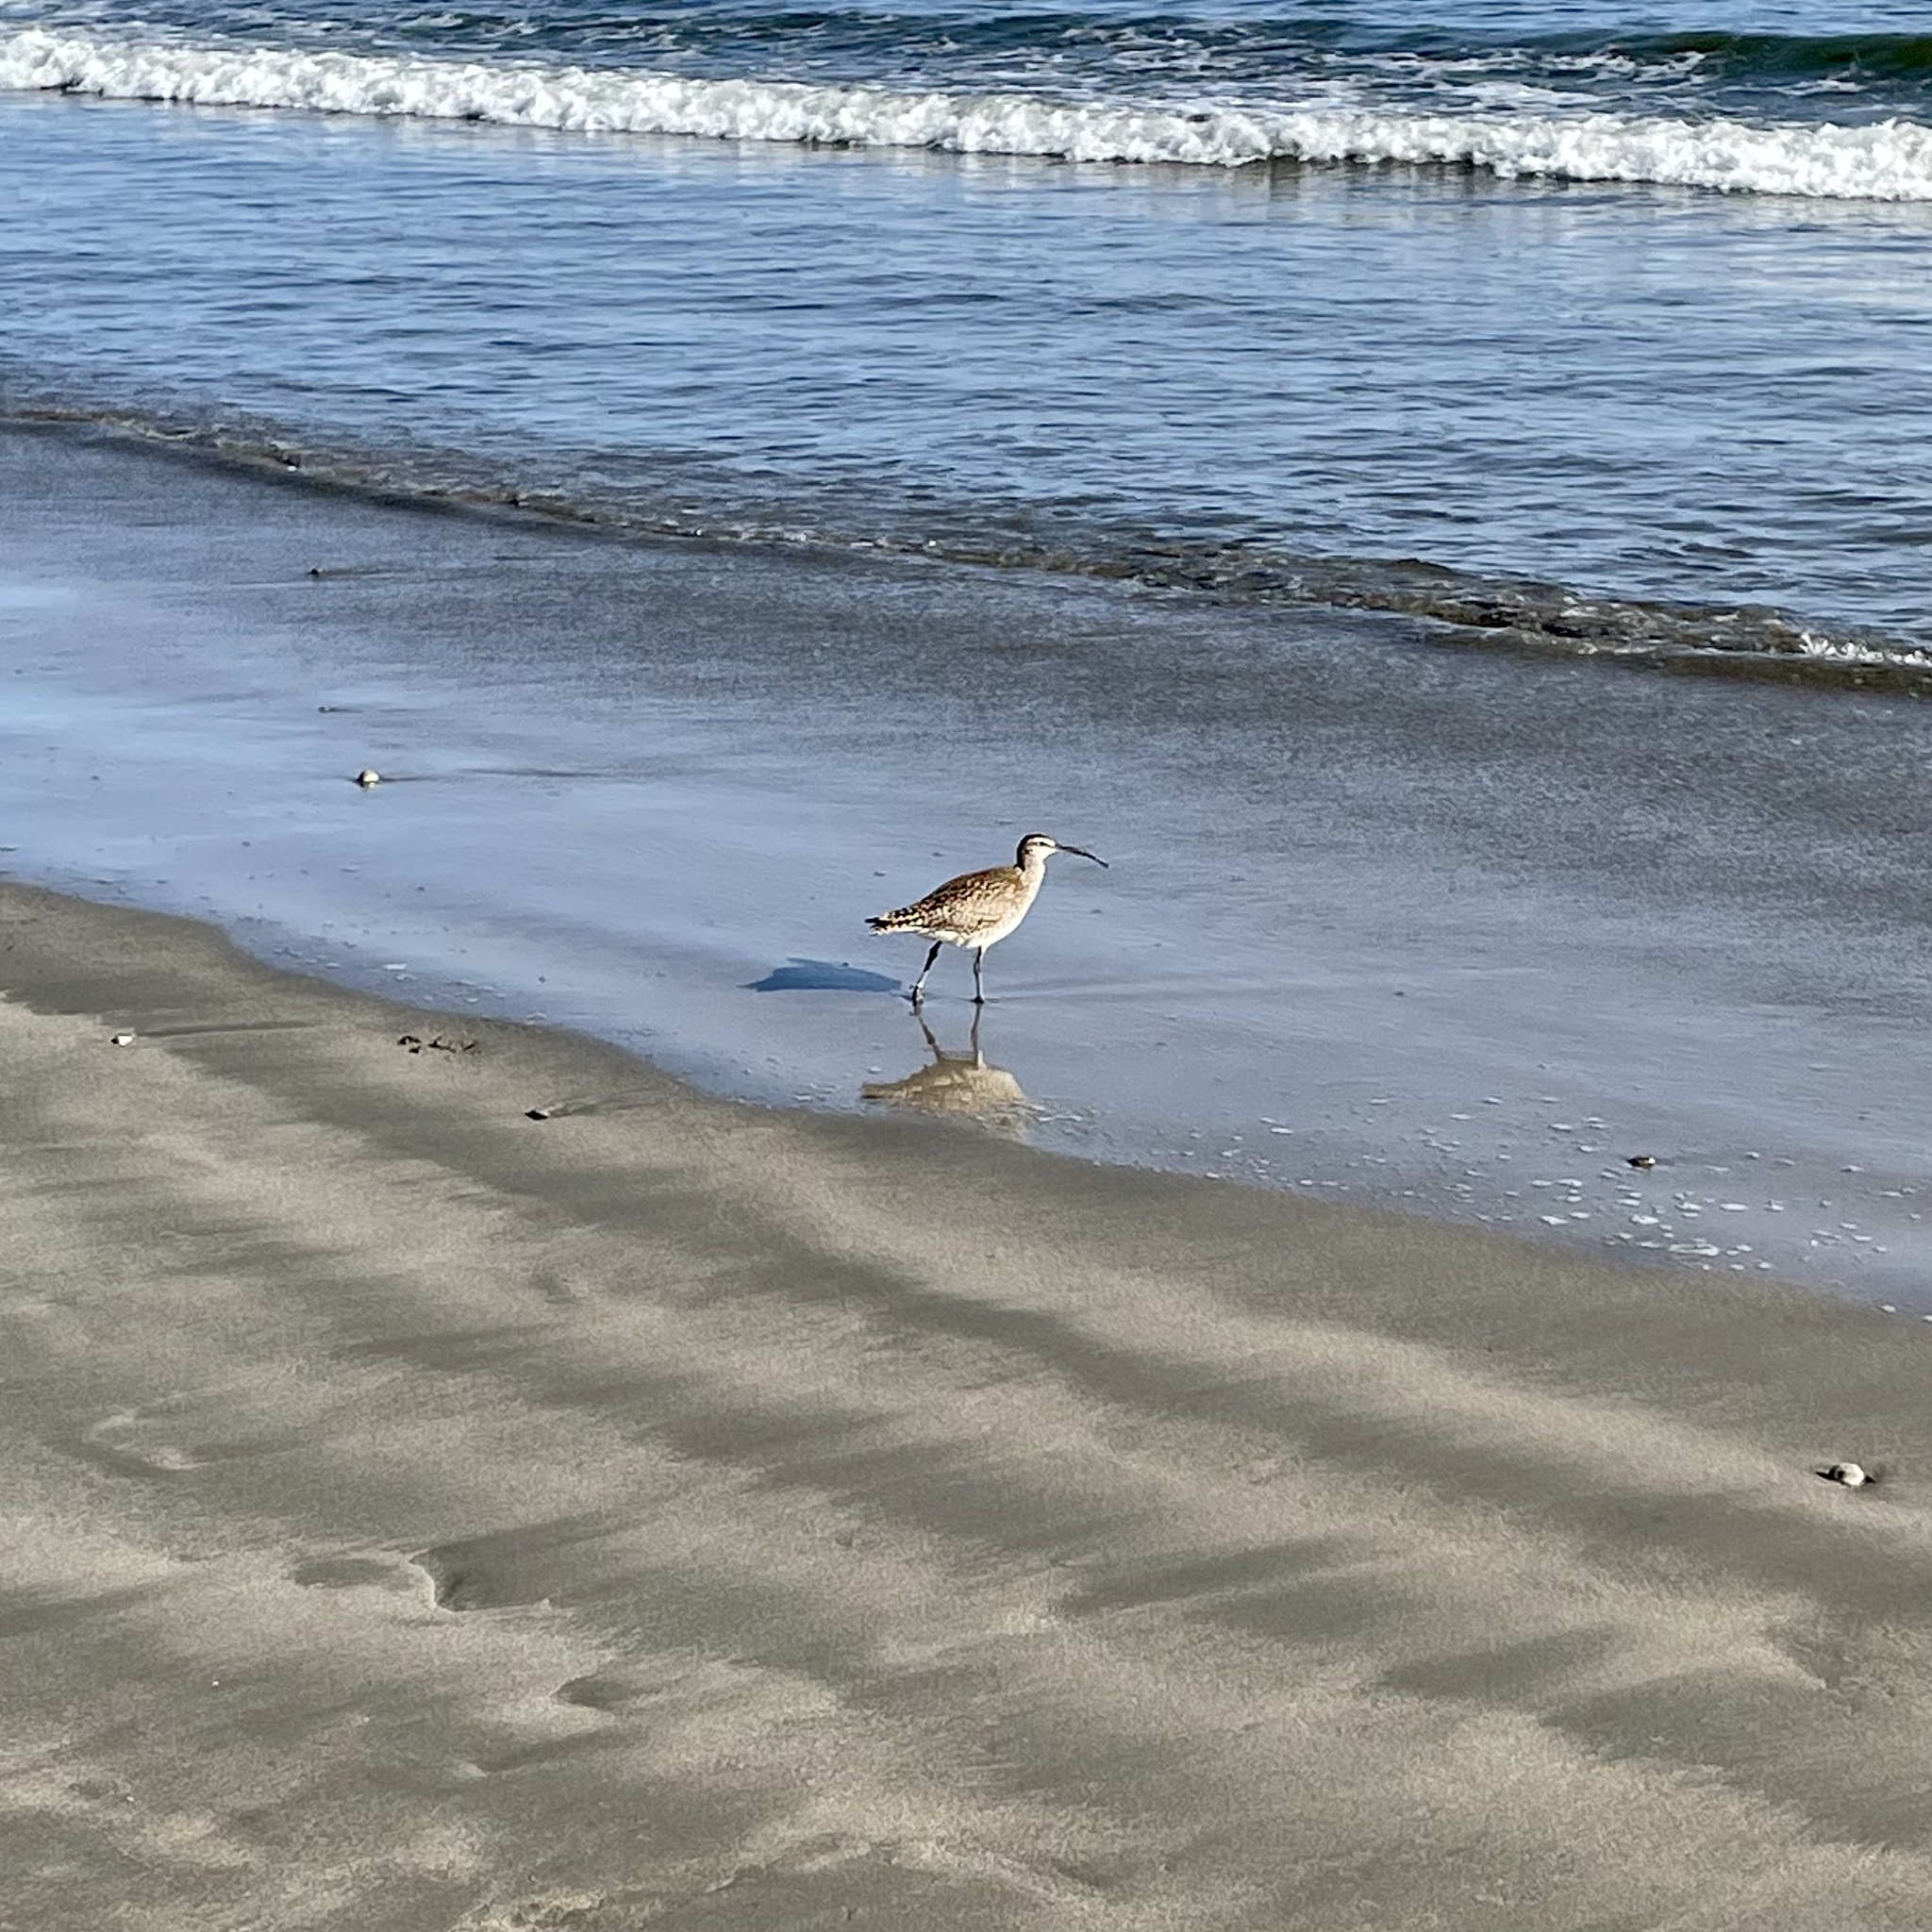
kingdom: Animalia
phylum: Chordata
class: Aves
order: Charadriiformes
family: Scolopacidae
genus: Numenius
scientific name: Numenius phaeopus
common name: Whimbrel
